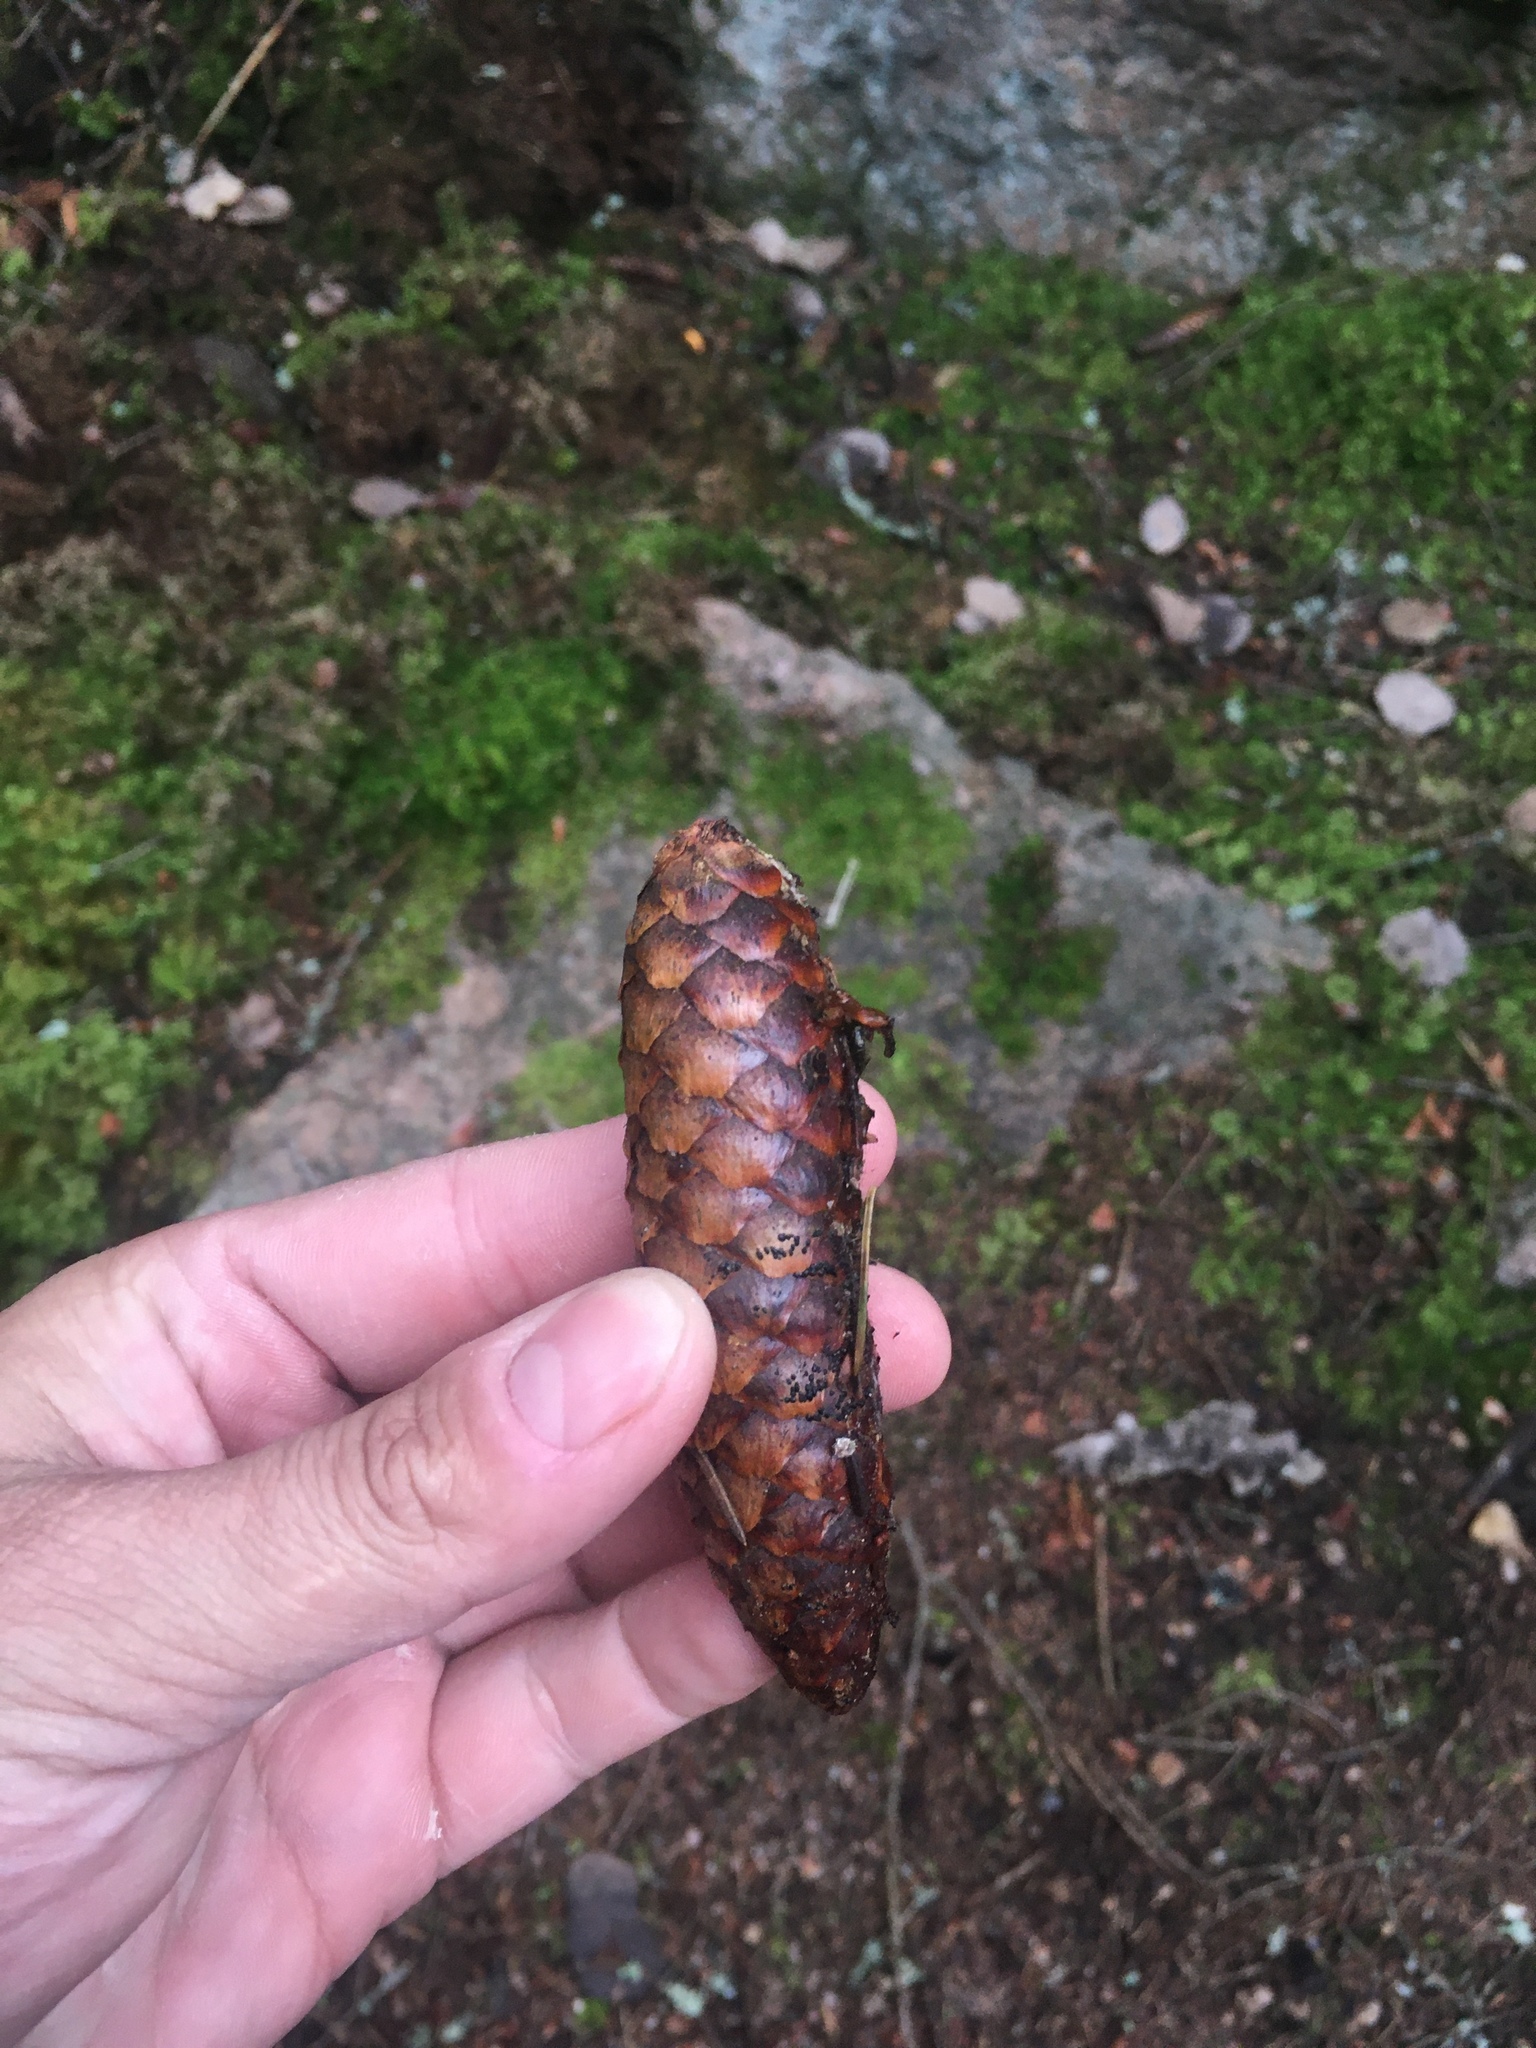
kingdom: Plantae
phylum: Tracheophyta
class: Pinopsida
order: Pinales
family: Pinaceae
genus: Picea
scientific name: Picea abies
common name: Norway spruce
